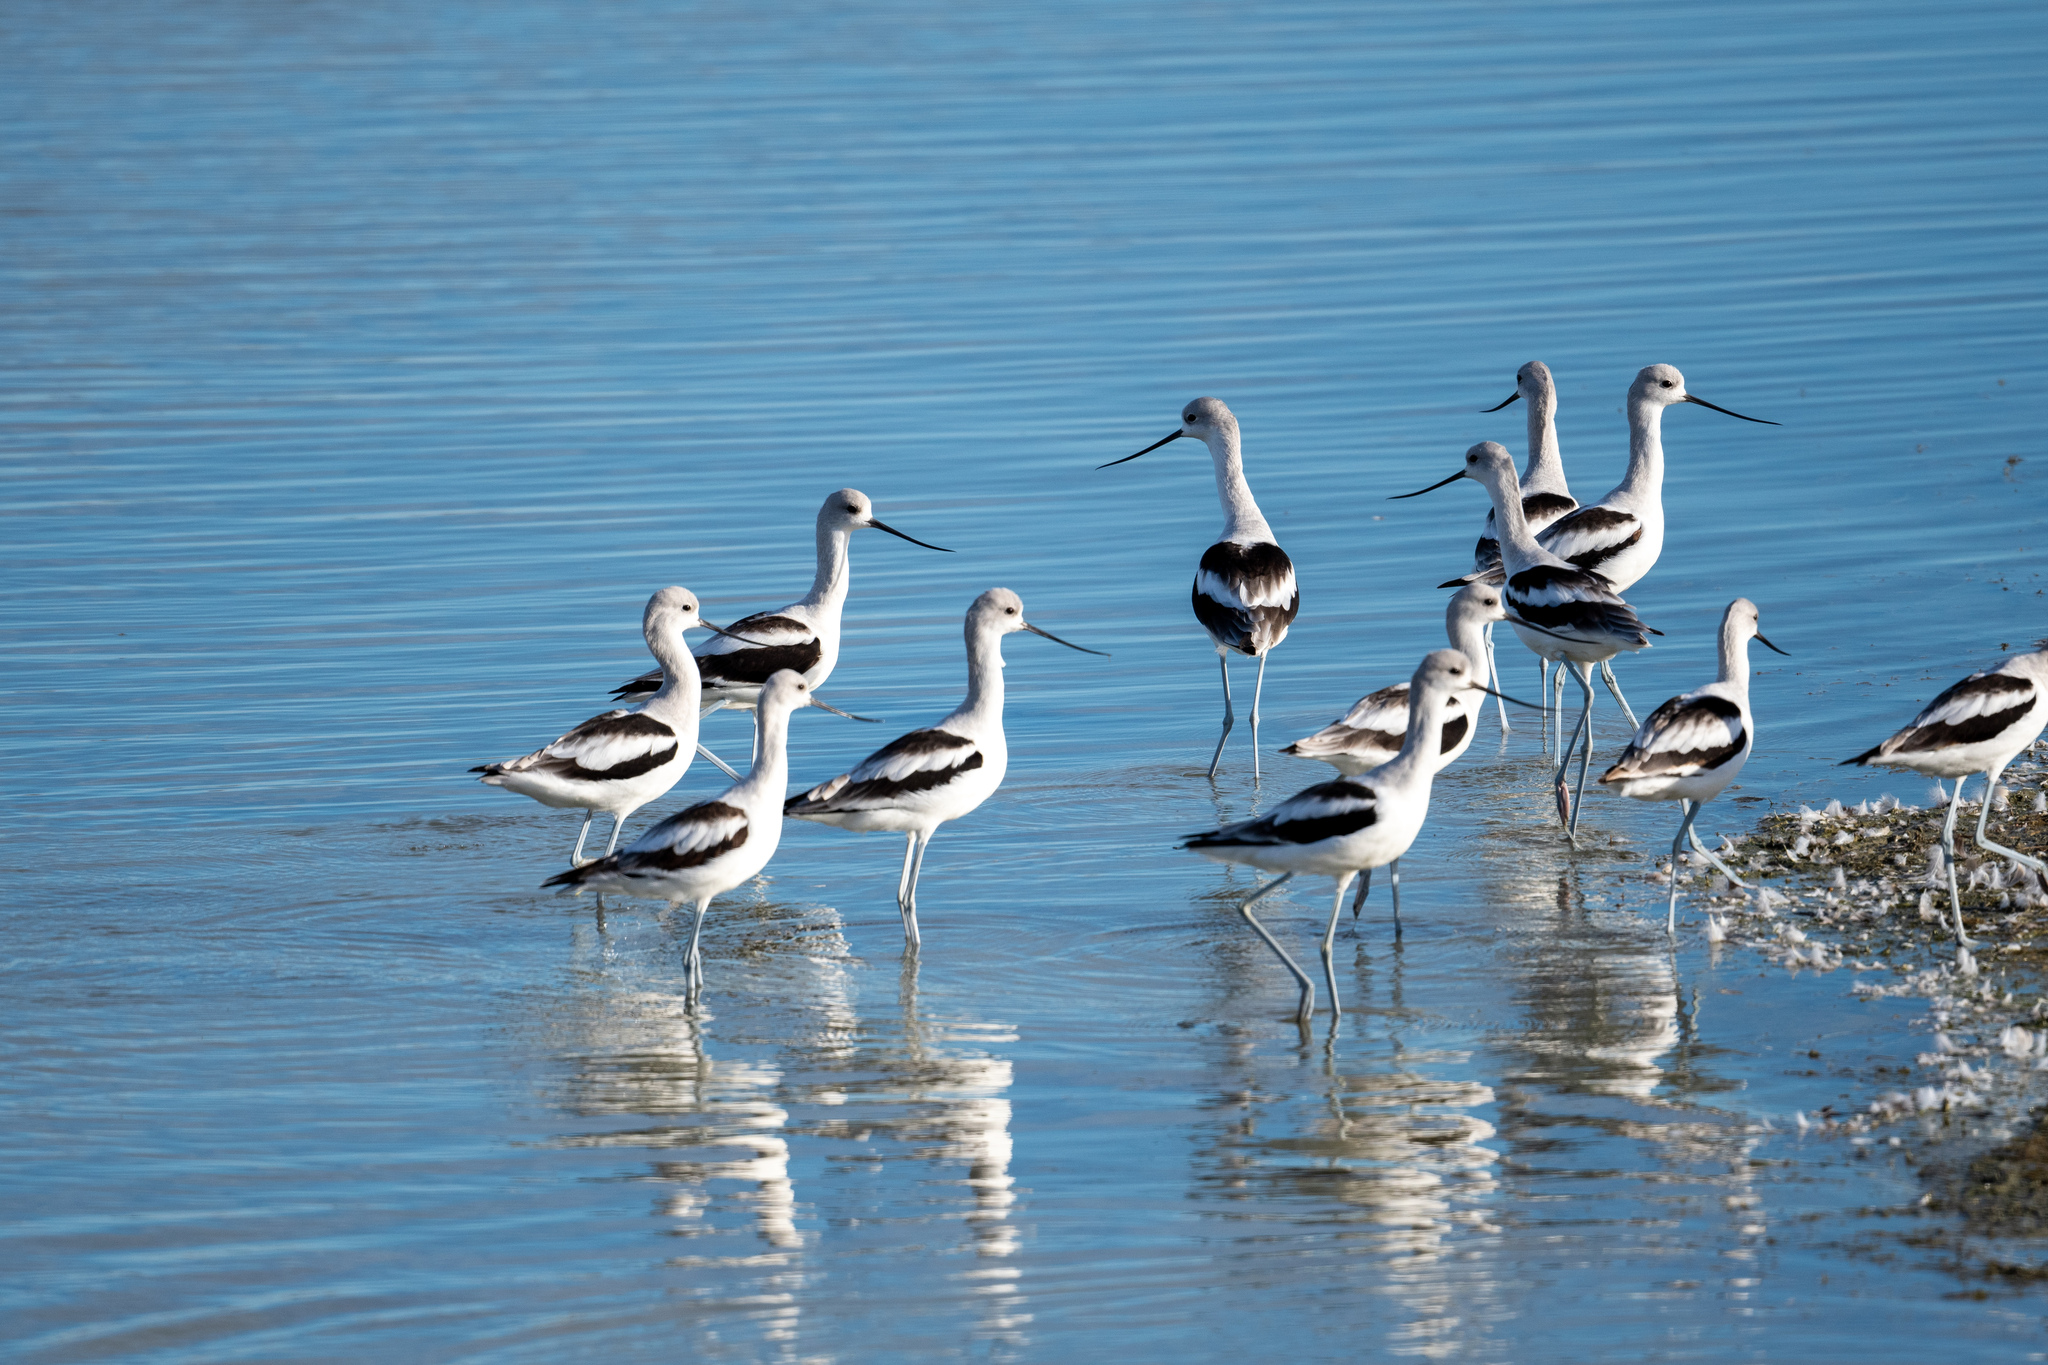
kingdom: Animalia
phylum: Chordata
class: Aves
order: Charadriiformes
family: Recurvirostridae
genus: Recurvirostra
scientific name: Recurvirostra americana
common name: American avocet
